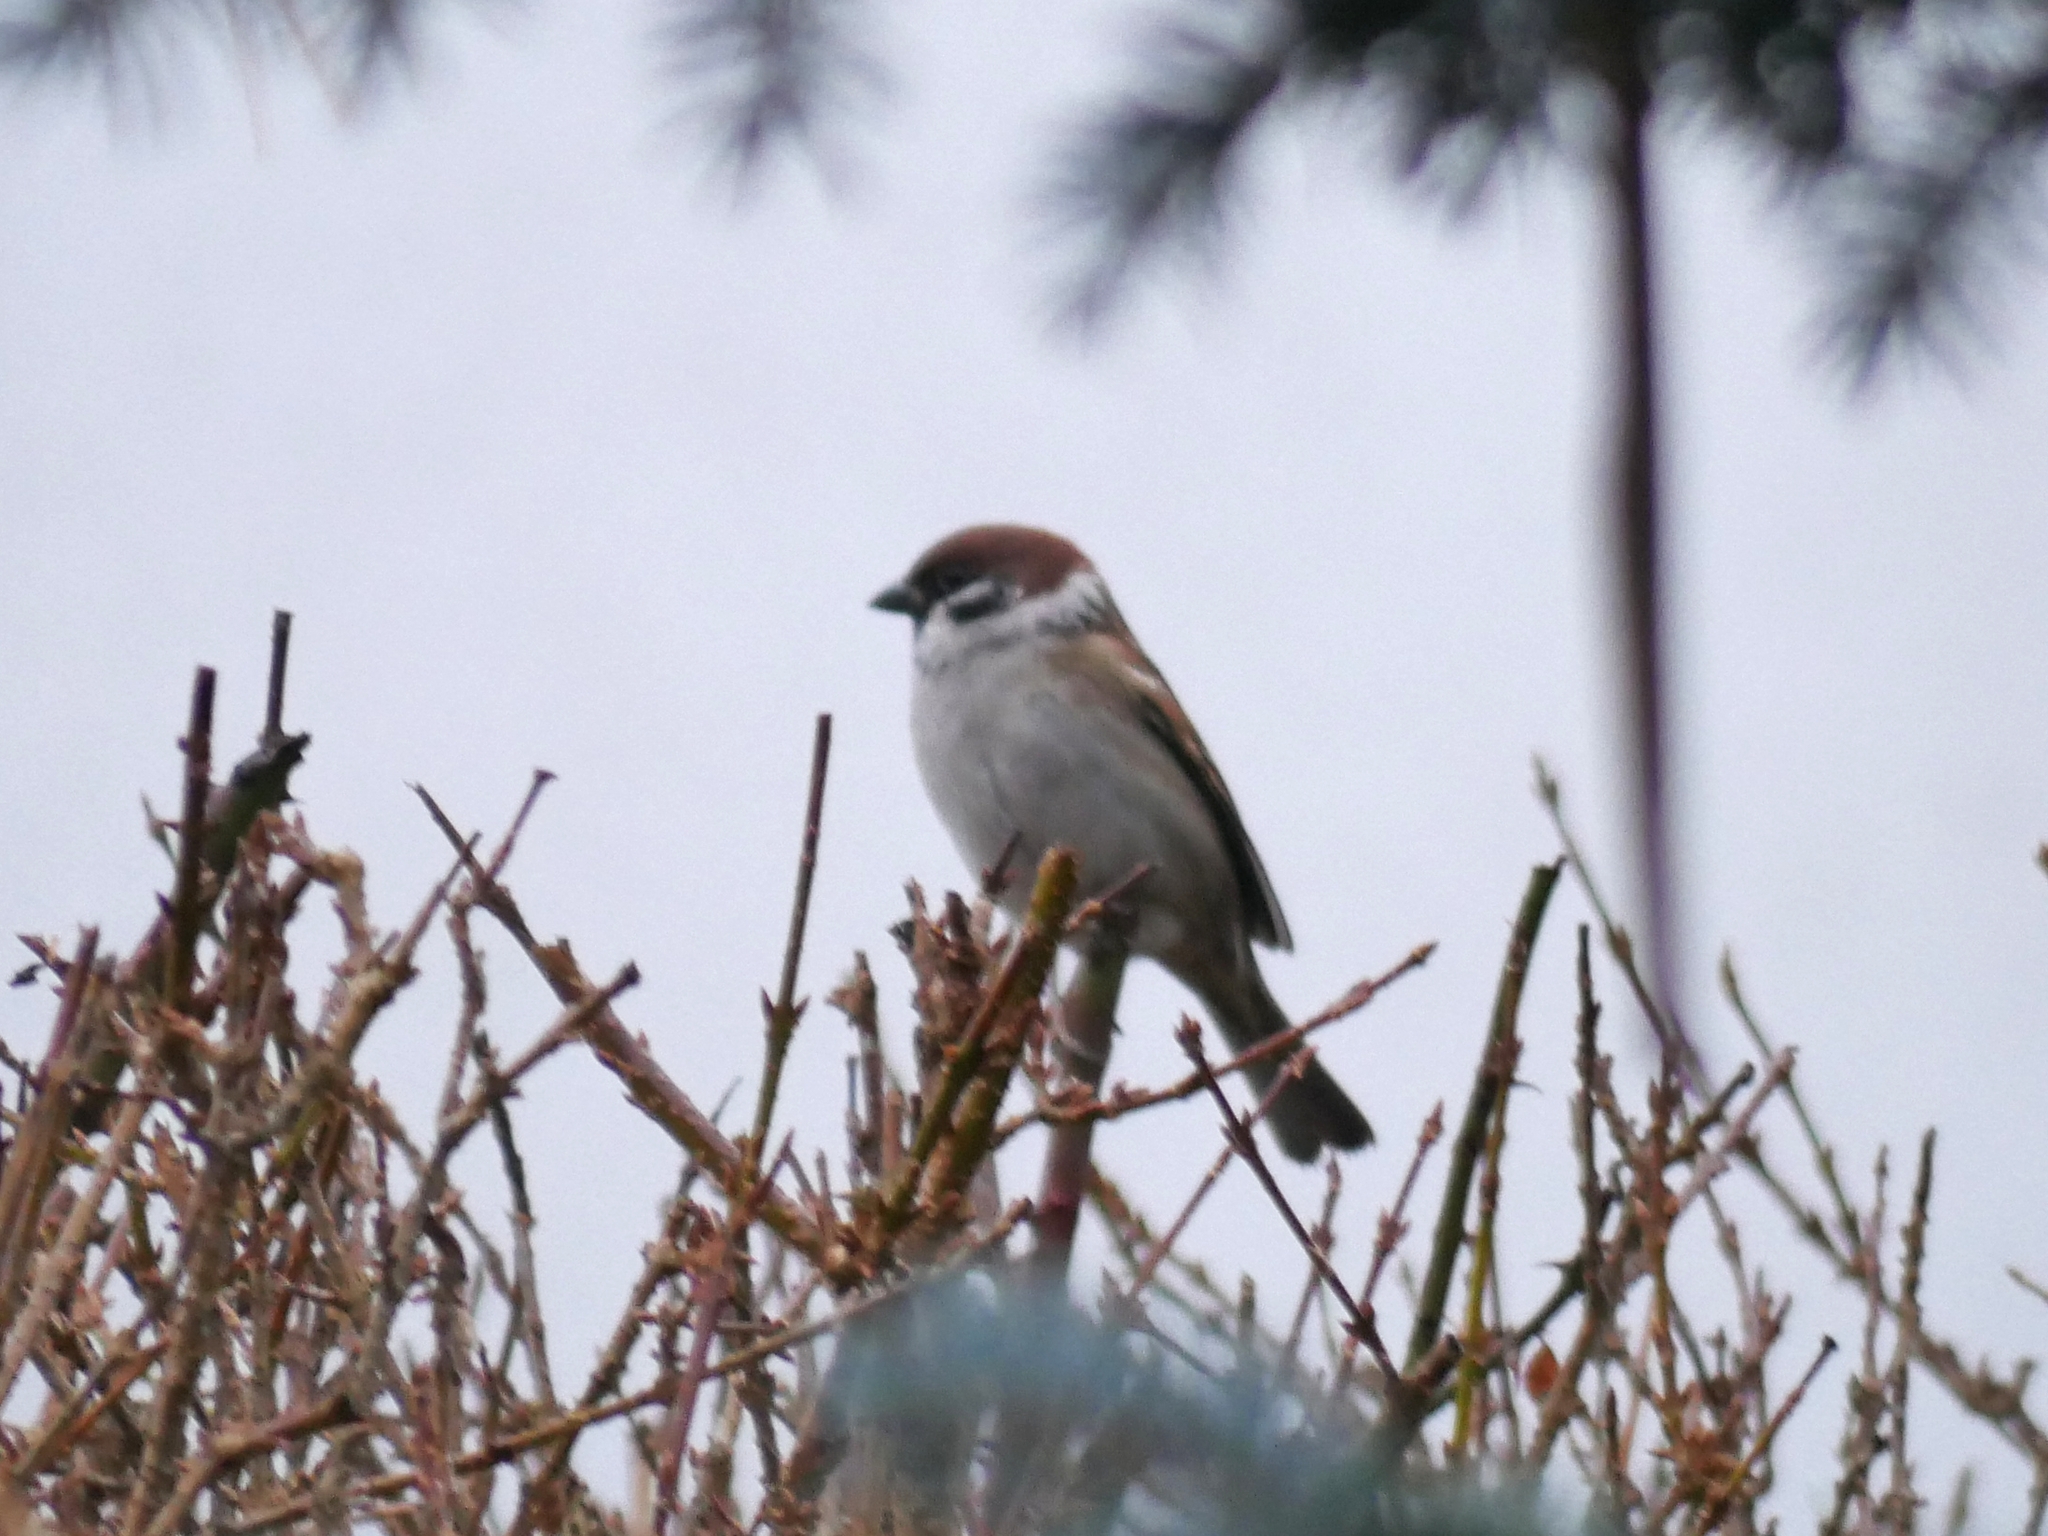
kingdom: Animalia
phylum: Chordata
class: Aves
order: Passeriformes
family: Passeridae
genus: Passer
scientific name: Passer montanus
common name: Eurasian tree sparrow
